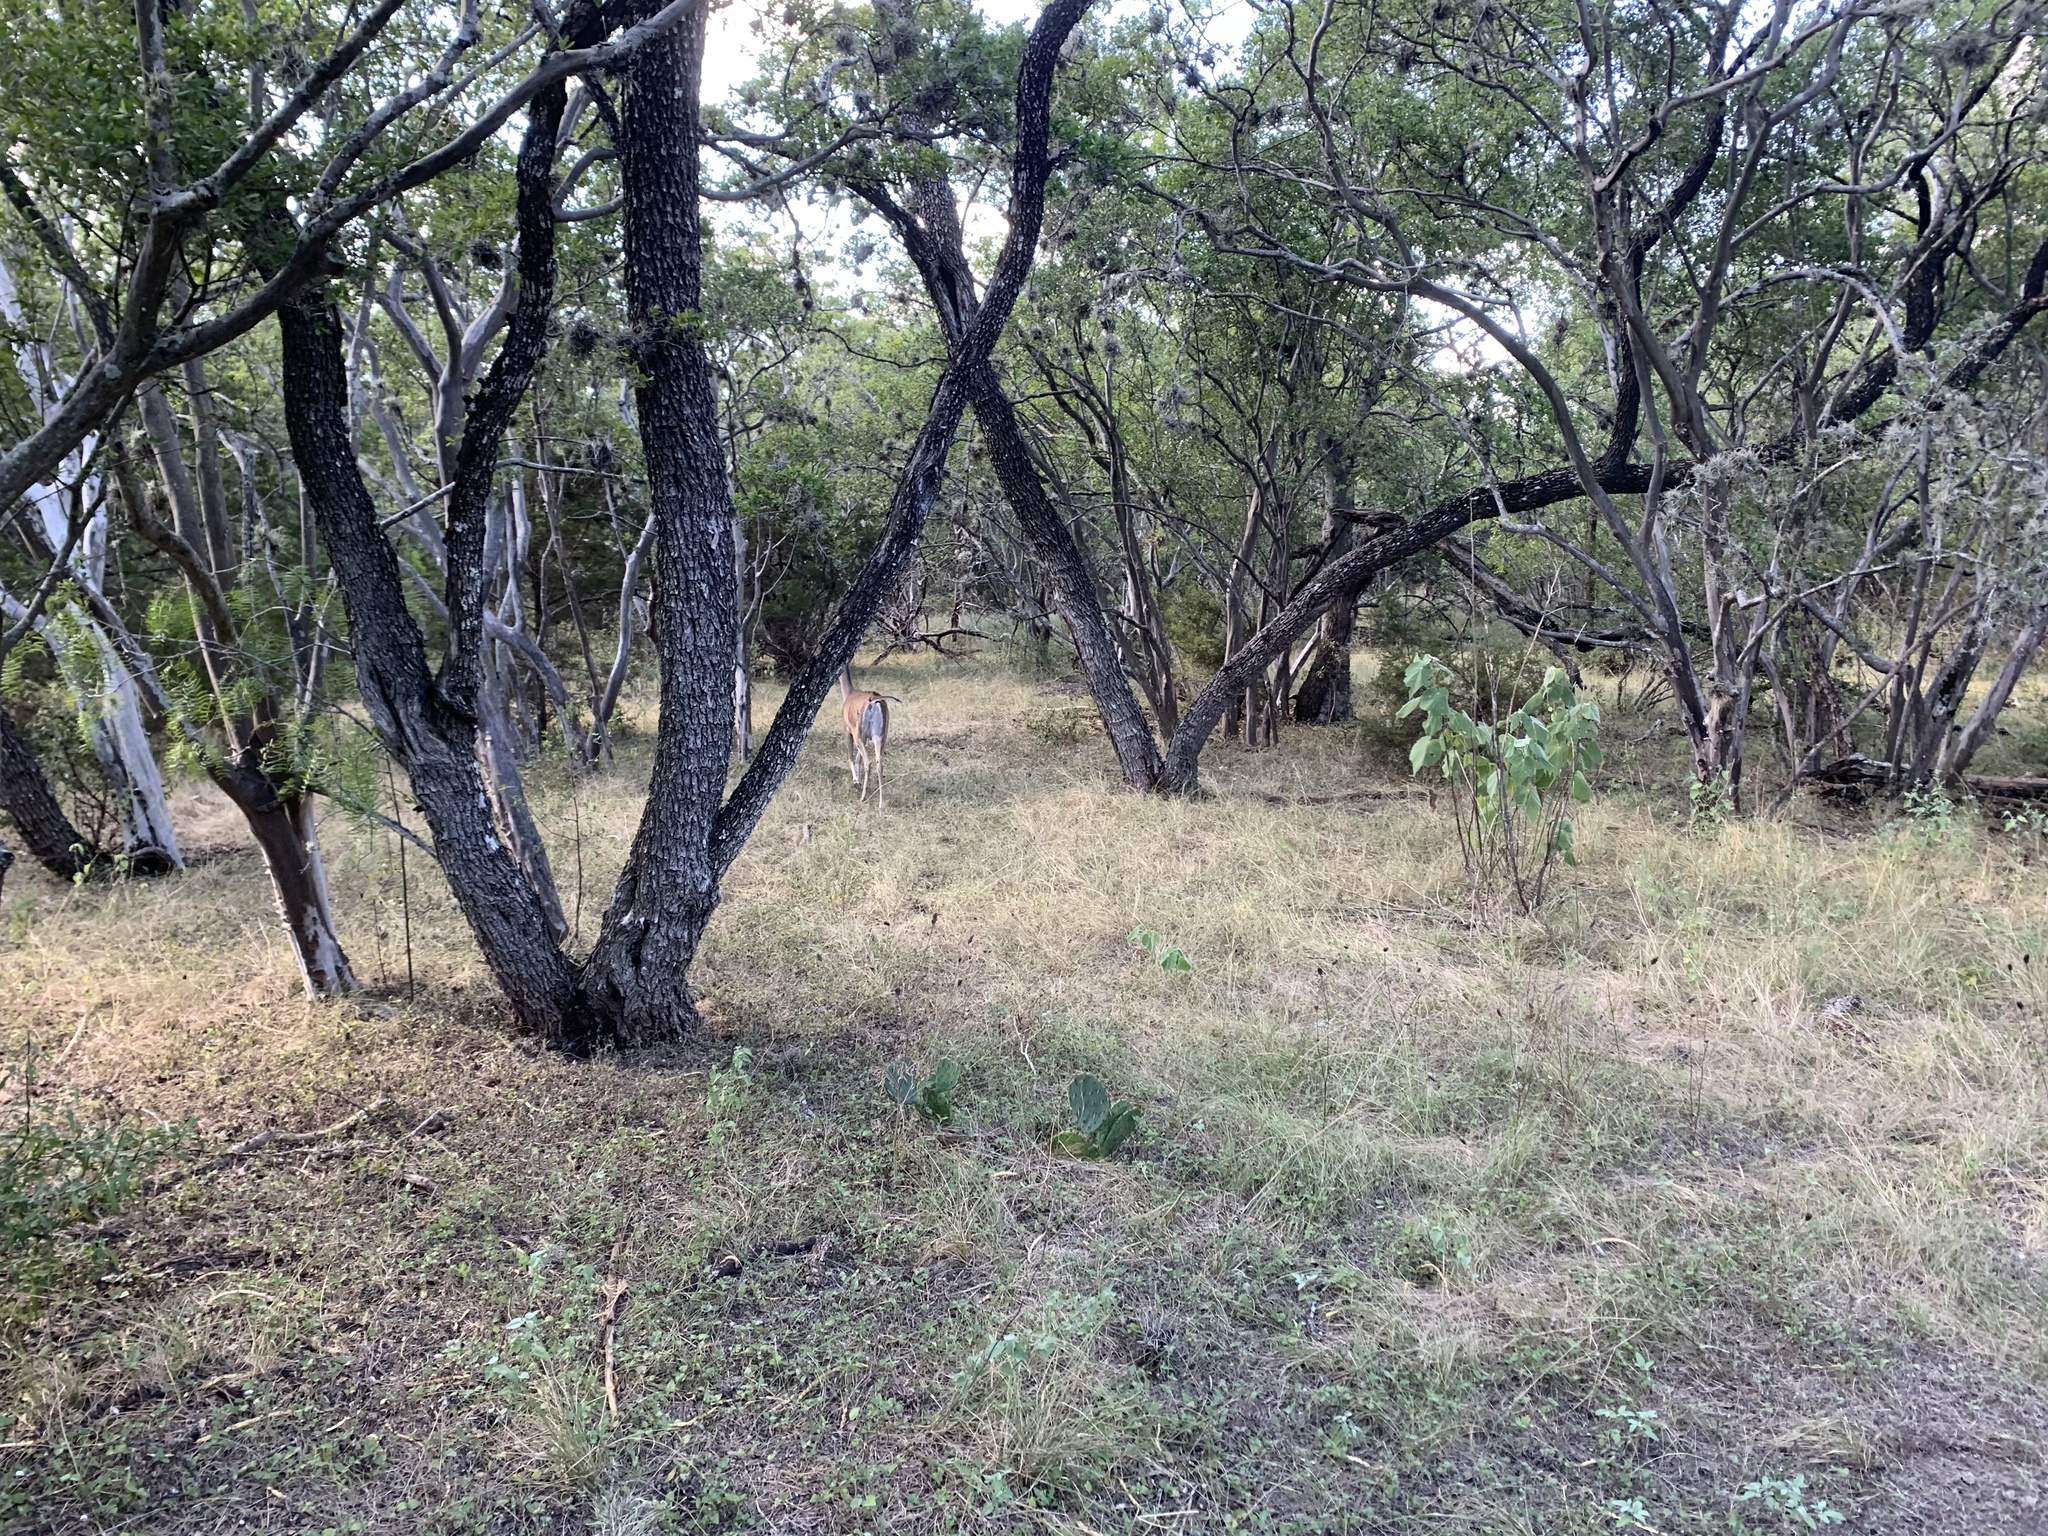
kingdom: Animalia
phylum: Chordata
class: Mammalia
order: Artiodactyla
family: Cervidae
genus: Odocoileus
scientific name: Odocoileus virginianus
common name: White-tailed deer
